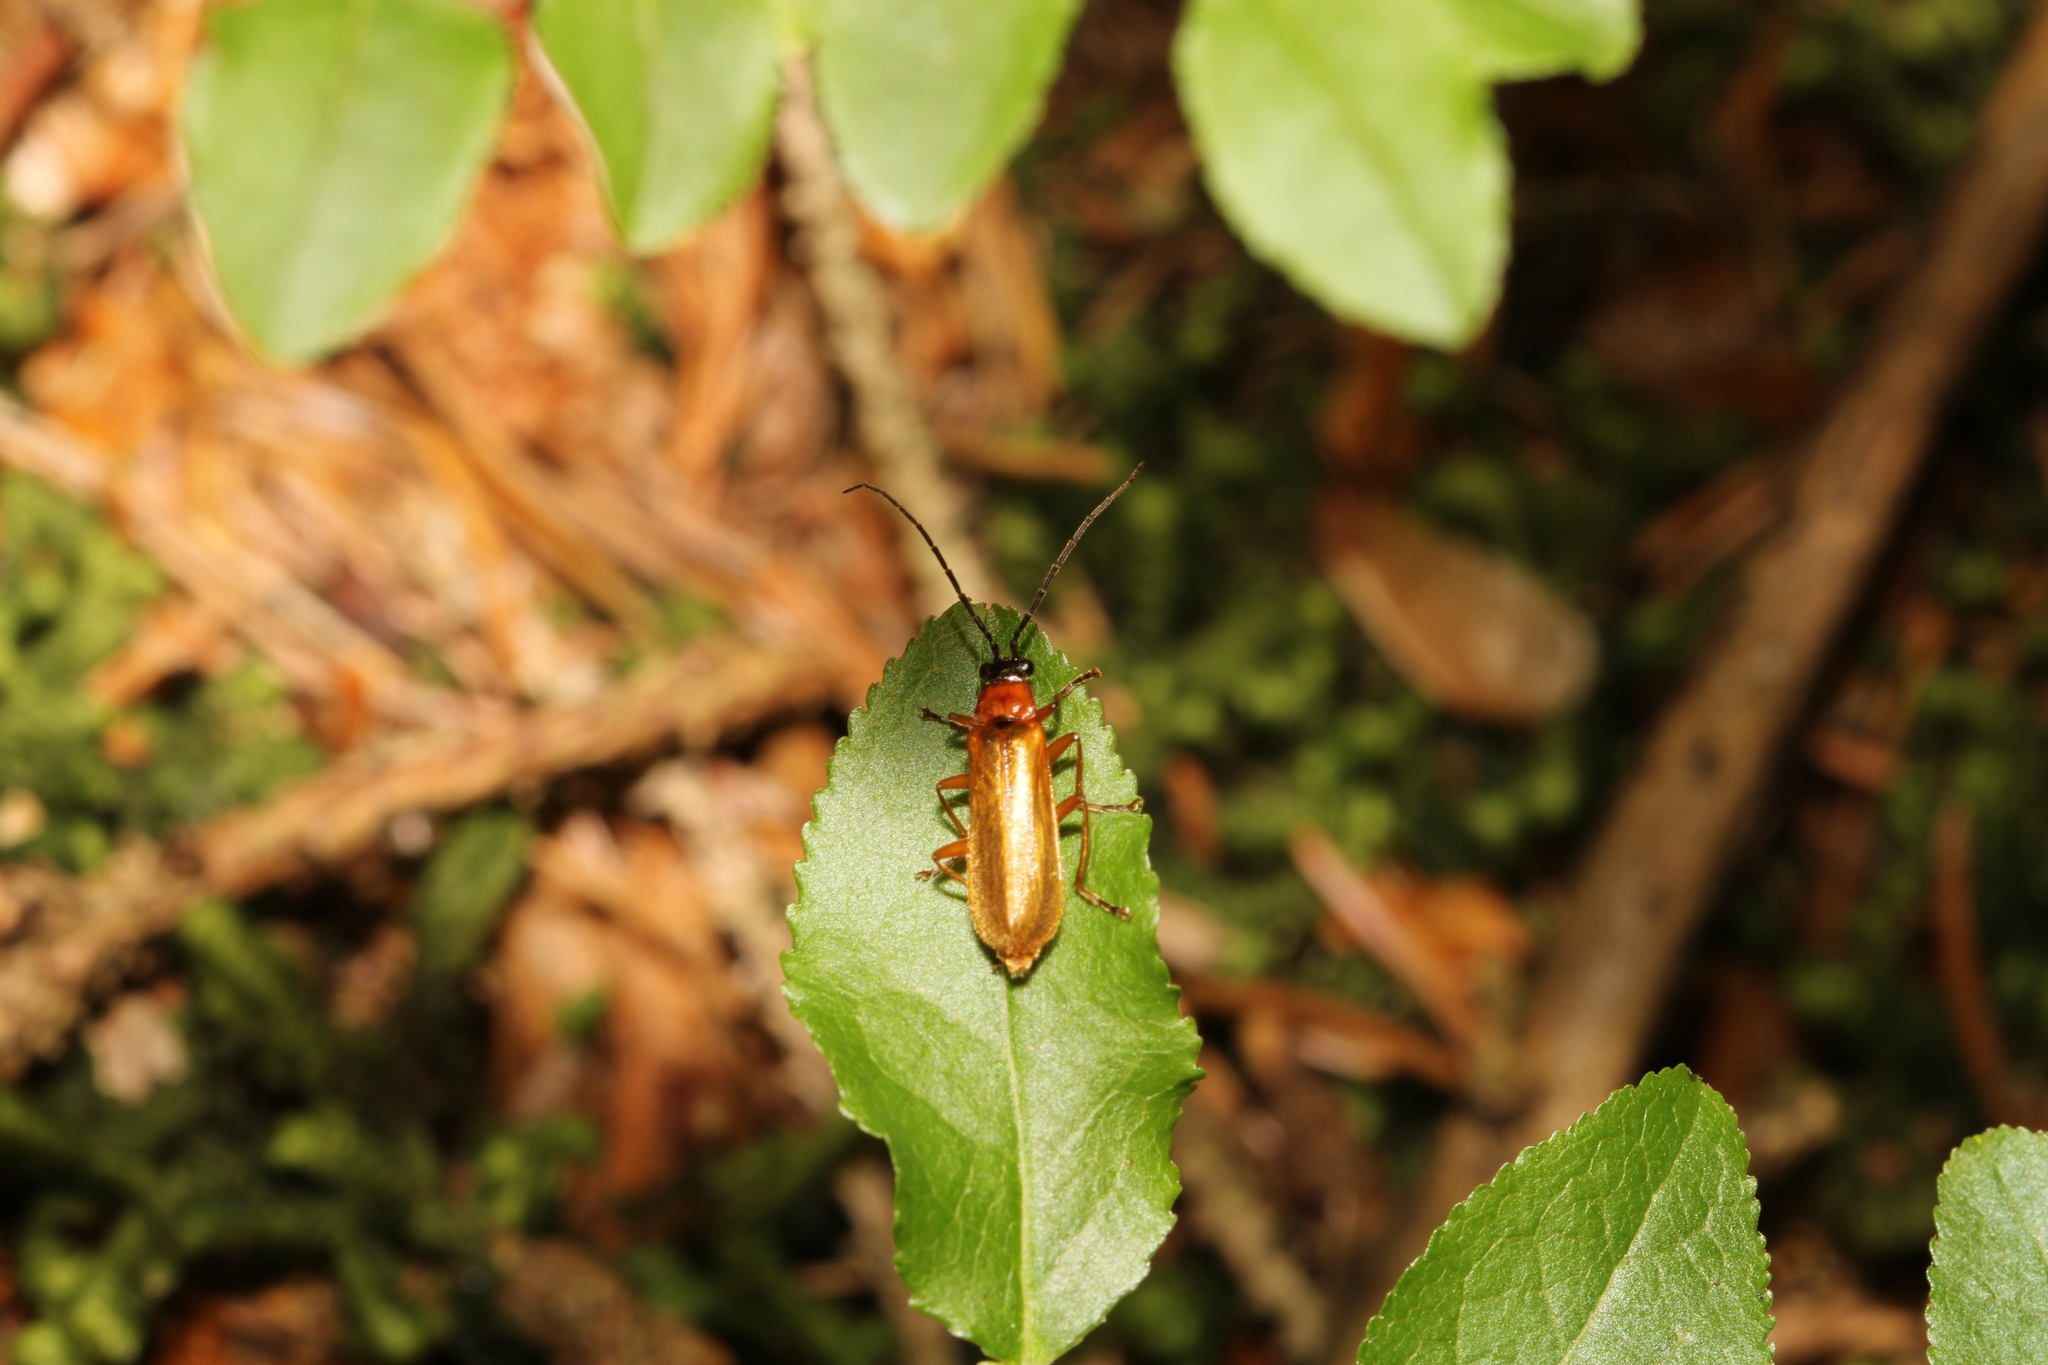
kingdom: Animalia
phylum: Arthropoda
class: Insecta
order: Coleoptera
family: Cantharidae
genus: Rhagonycha
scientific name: Rhagonycha nigriceps
